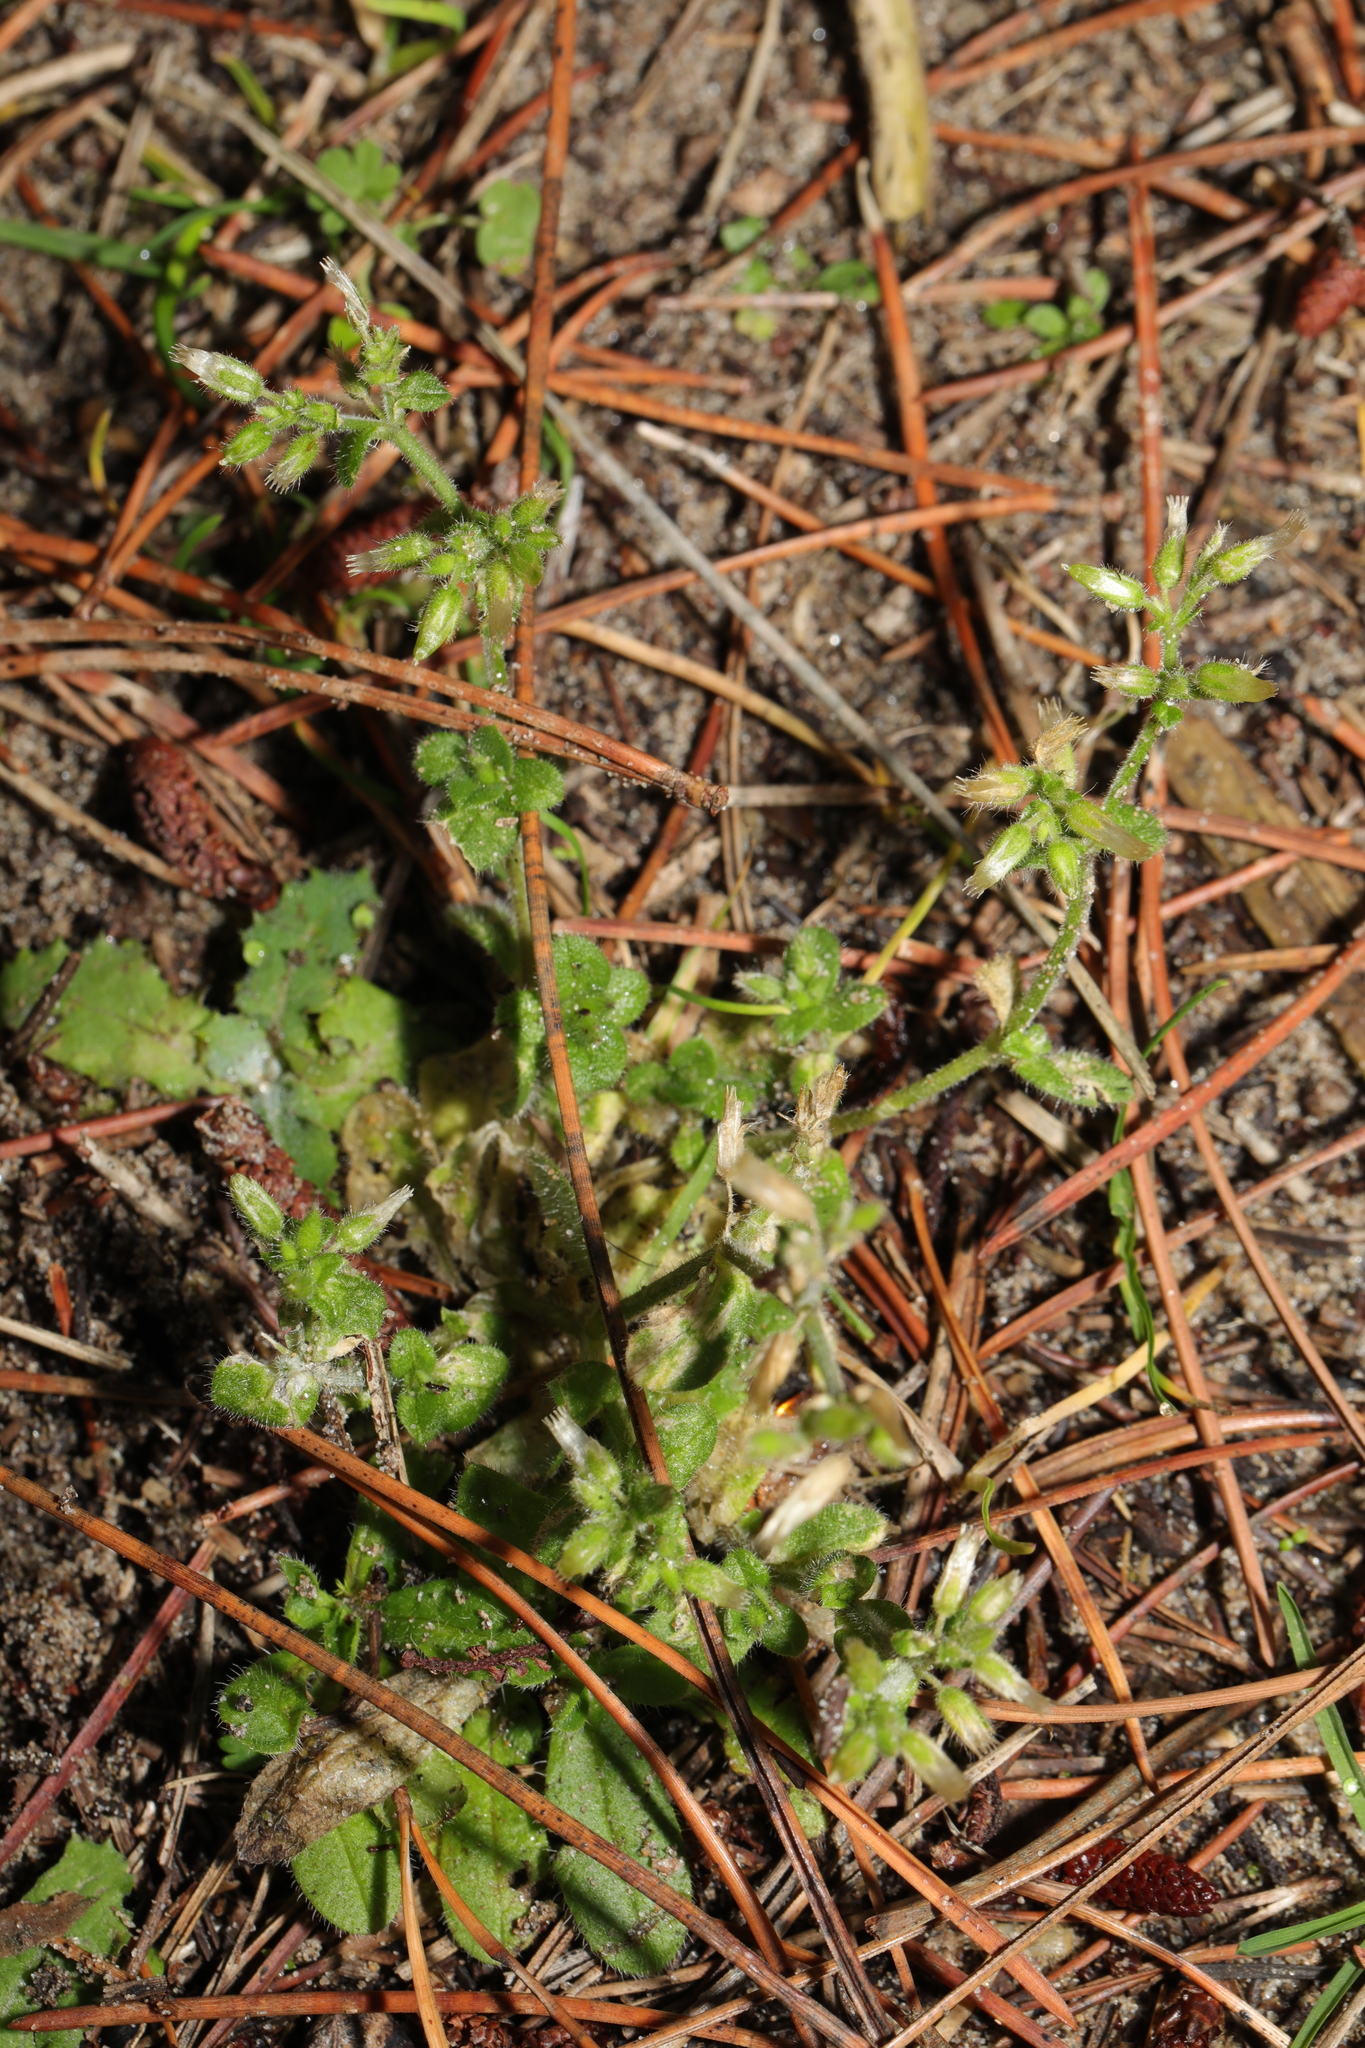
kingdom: Plantae
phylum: Tracheophyta
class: Magnoliopsida
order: Caryophyllales
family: Caryophyllaceae
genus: Cerastium
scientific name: Cerastium glomeratum
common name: Sticky chickweed
